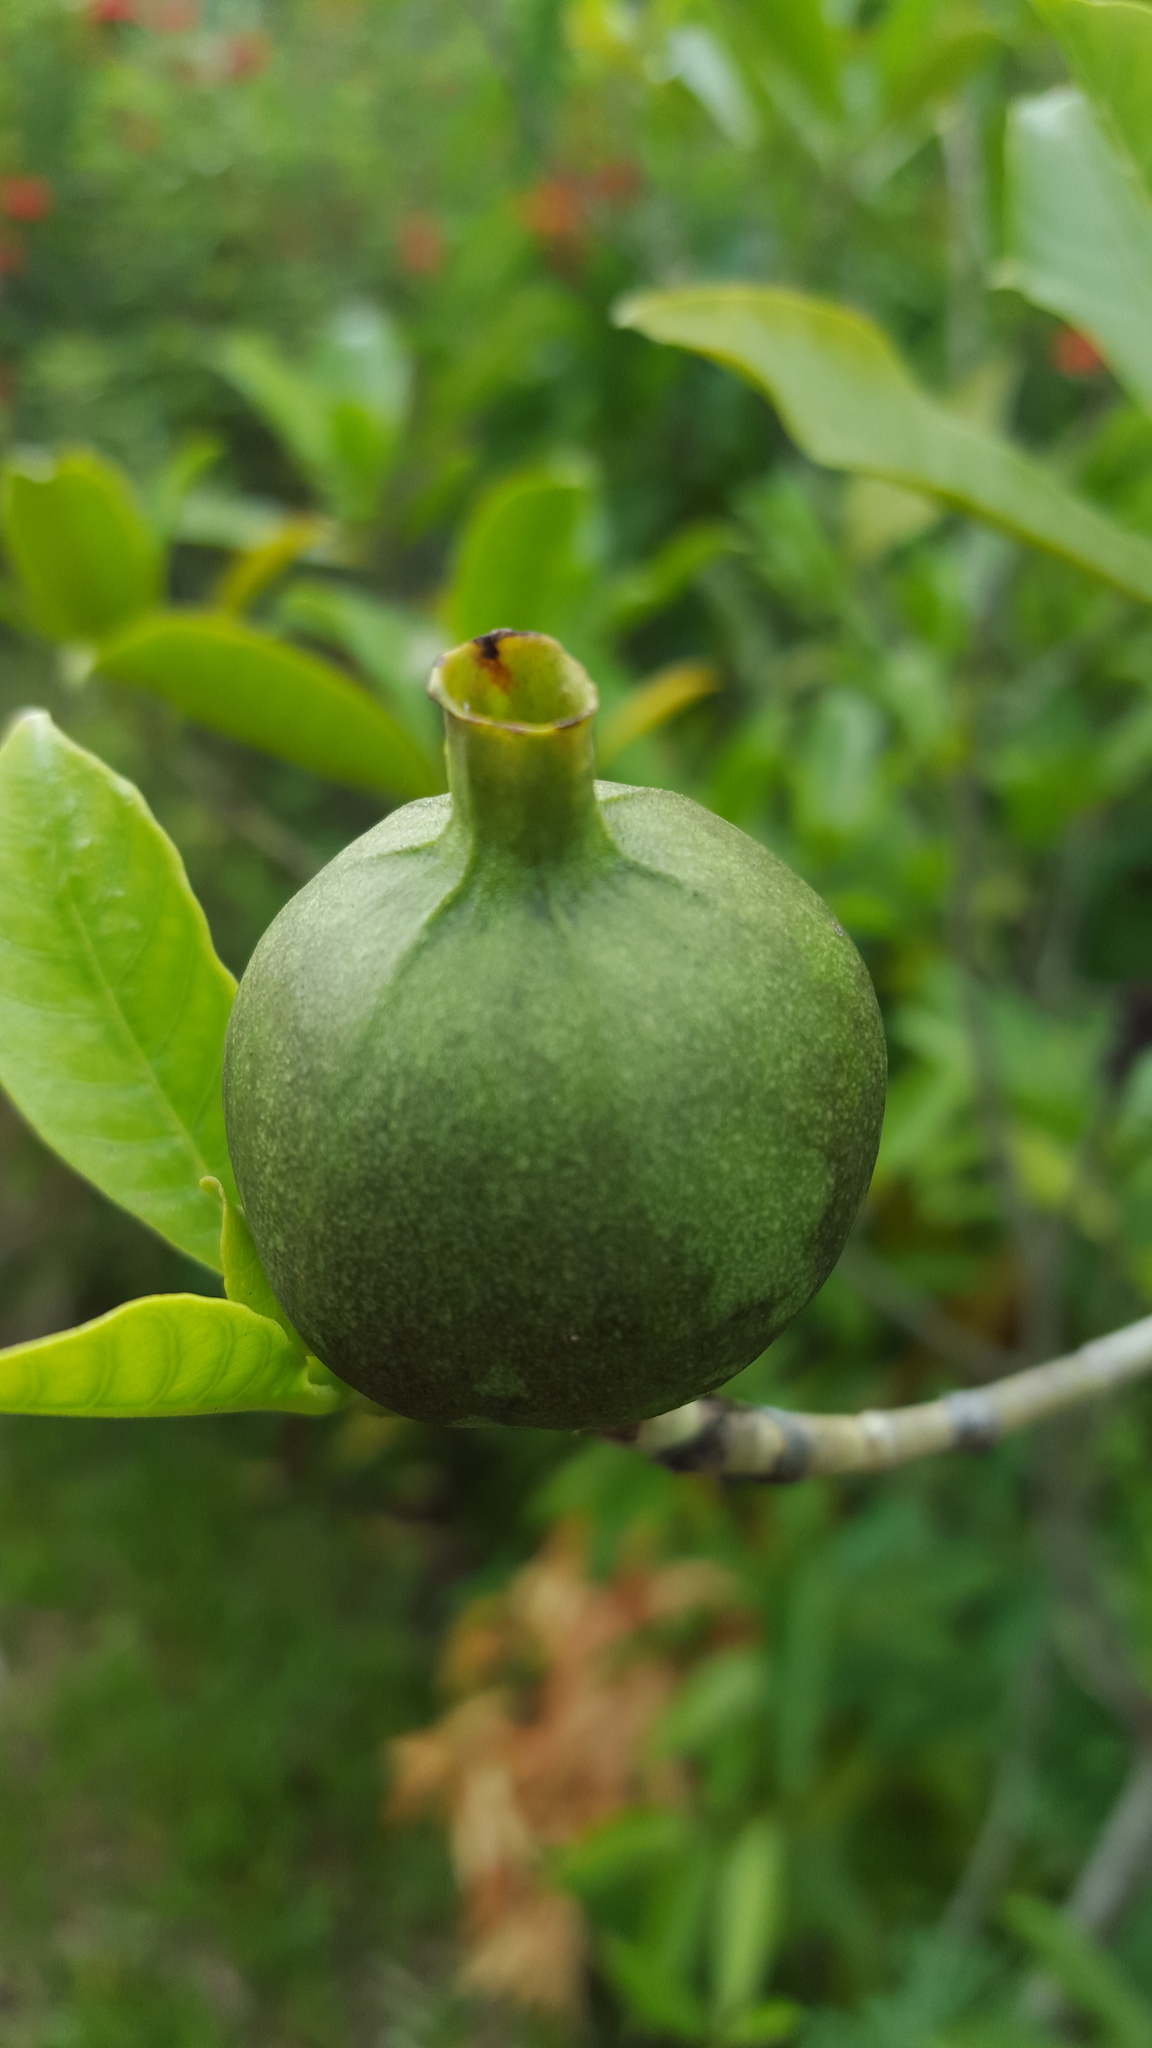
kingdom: Plantae
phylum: Tracheophyta
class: Magnoliopsida
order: Gentianales
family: Rubiaceae
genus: Gardenia
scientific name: Gardenia tubifera
